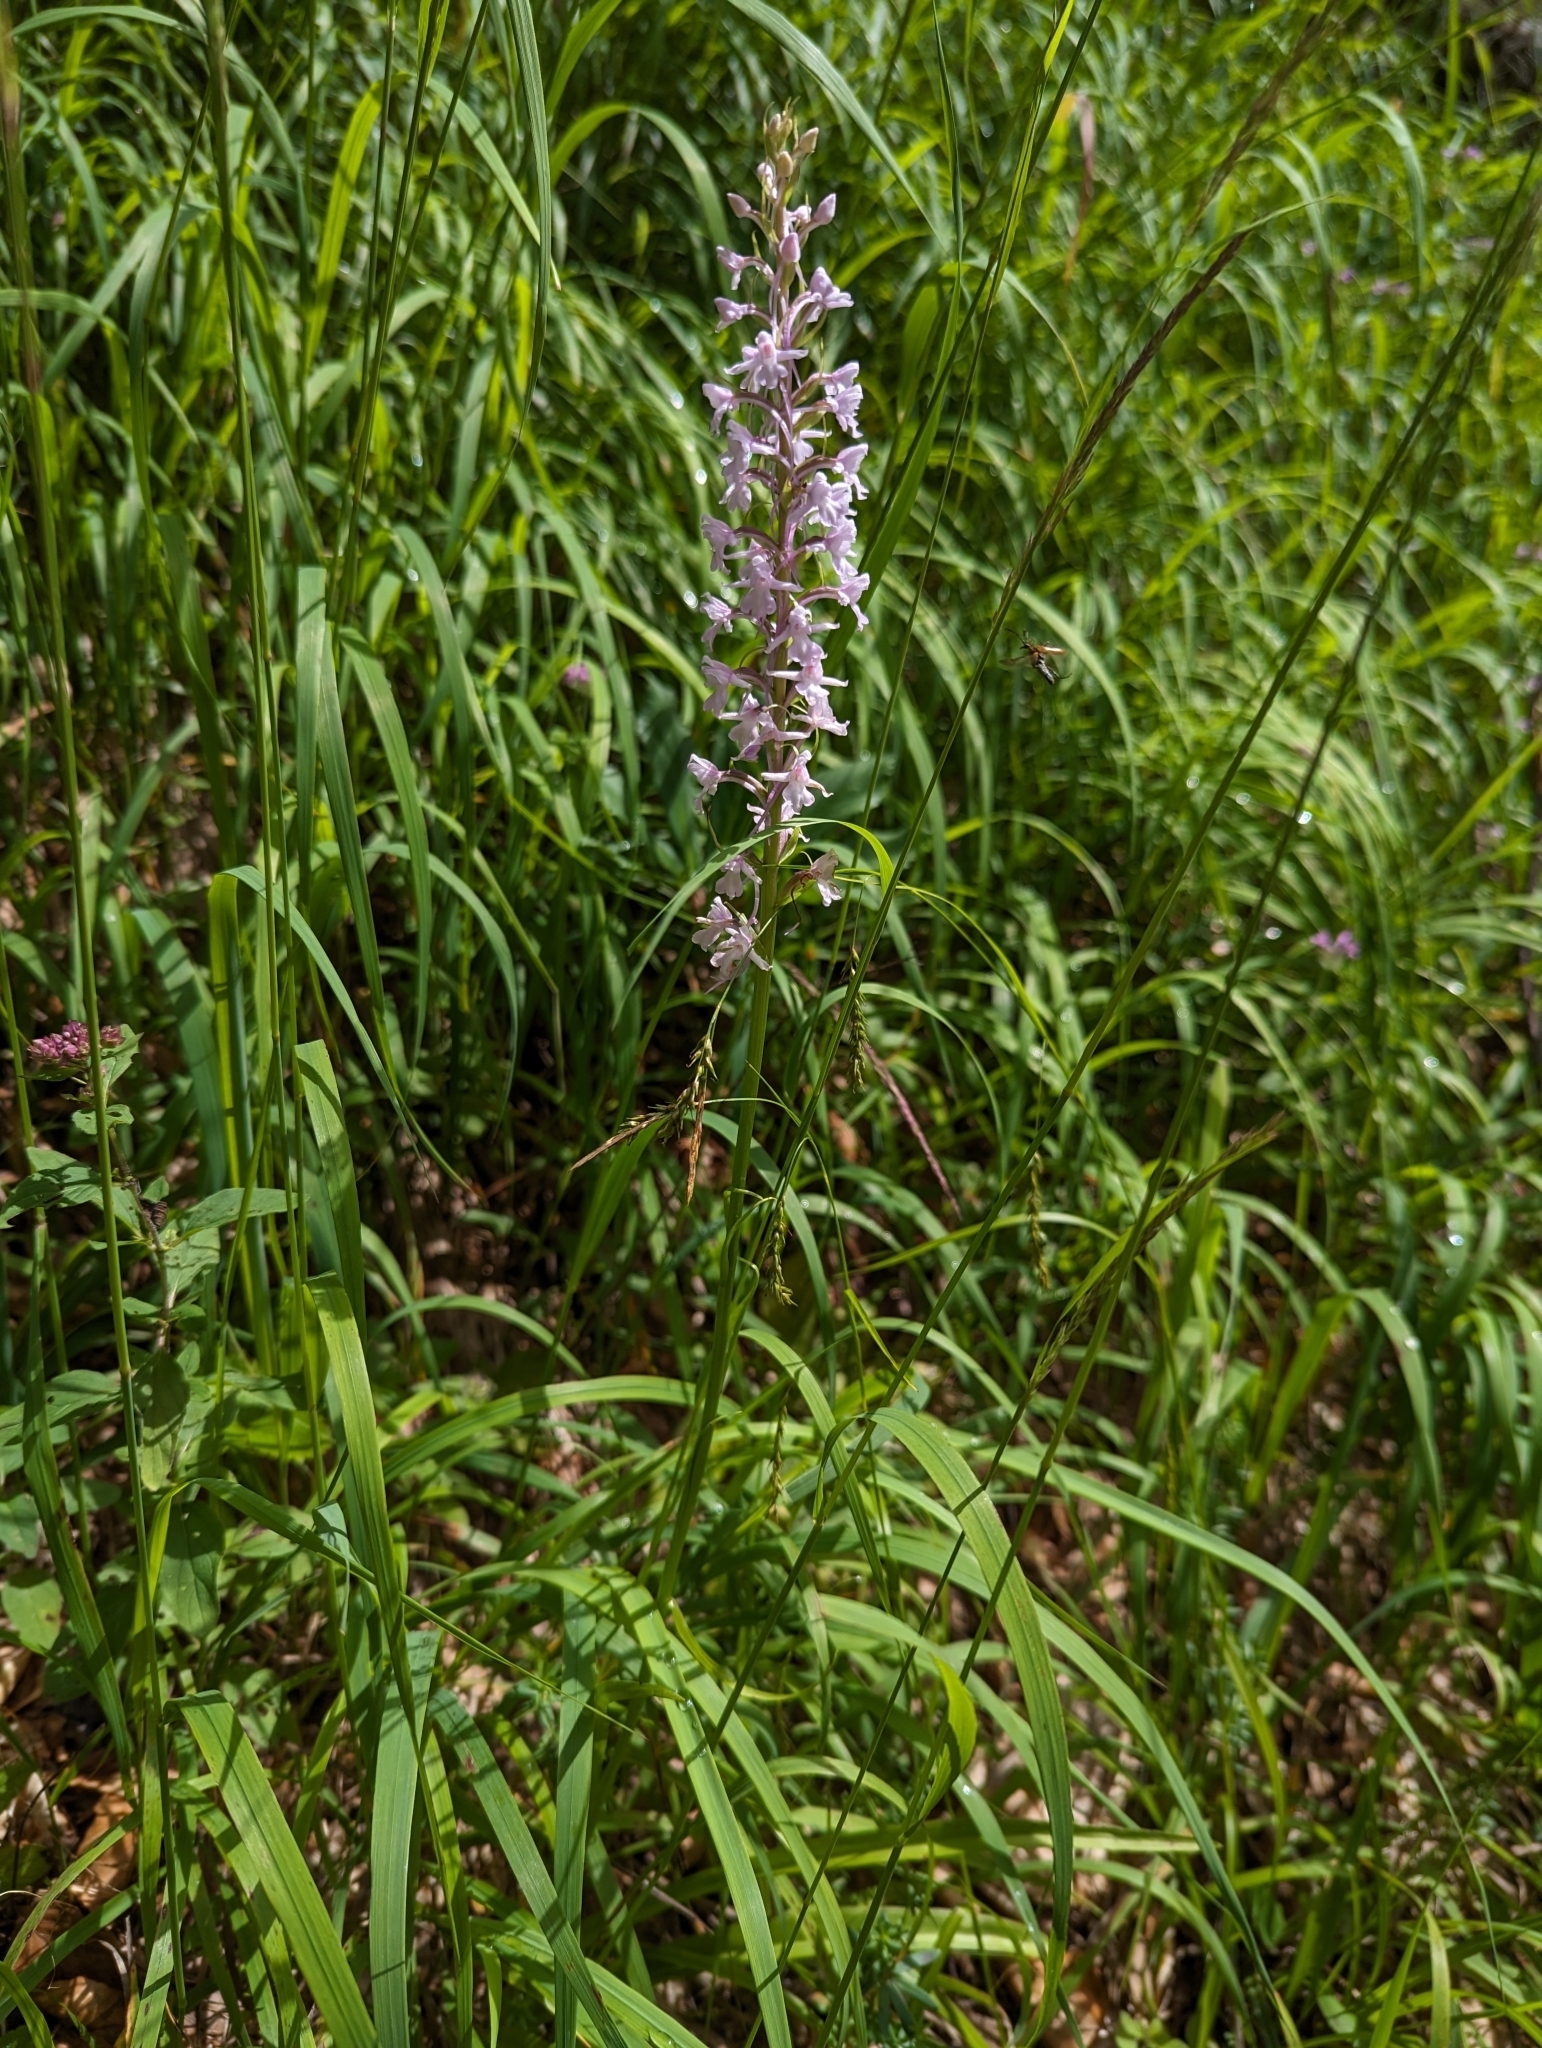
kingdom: Plantae
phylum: Tracheophyta
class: Liliopsida
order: Asparagales
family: Orchidaceae
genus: Gymnadenia
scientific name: Gymnadenia conopsea
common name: Fragrant orchid
